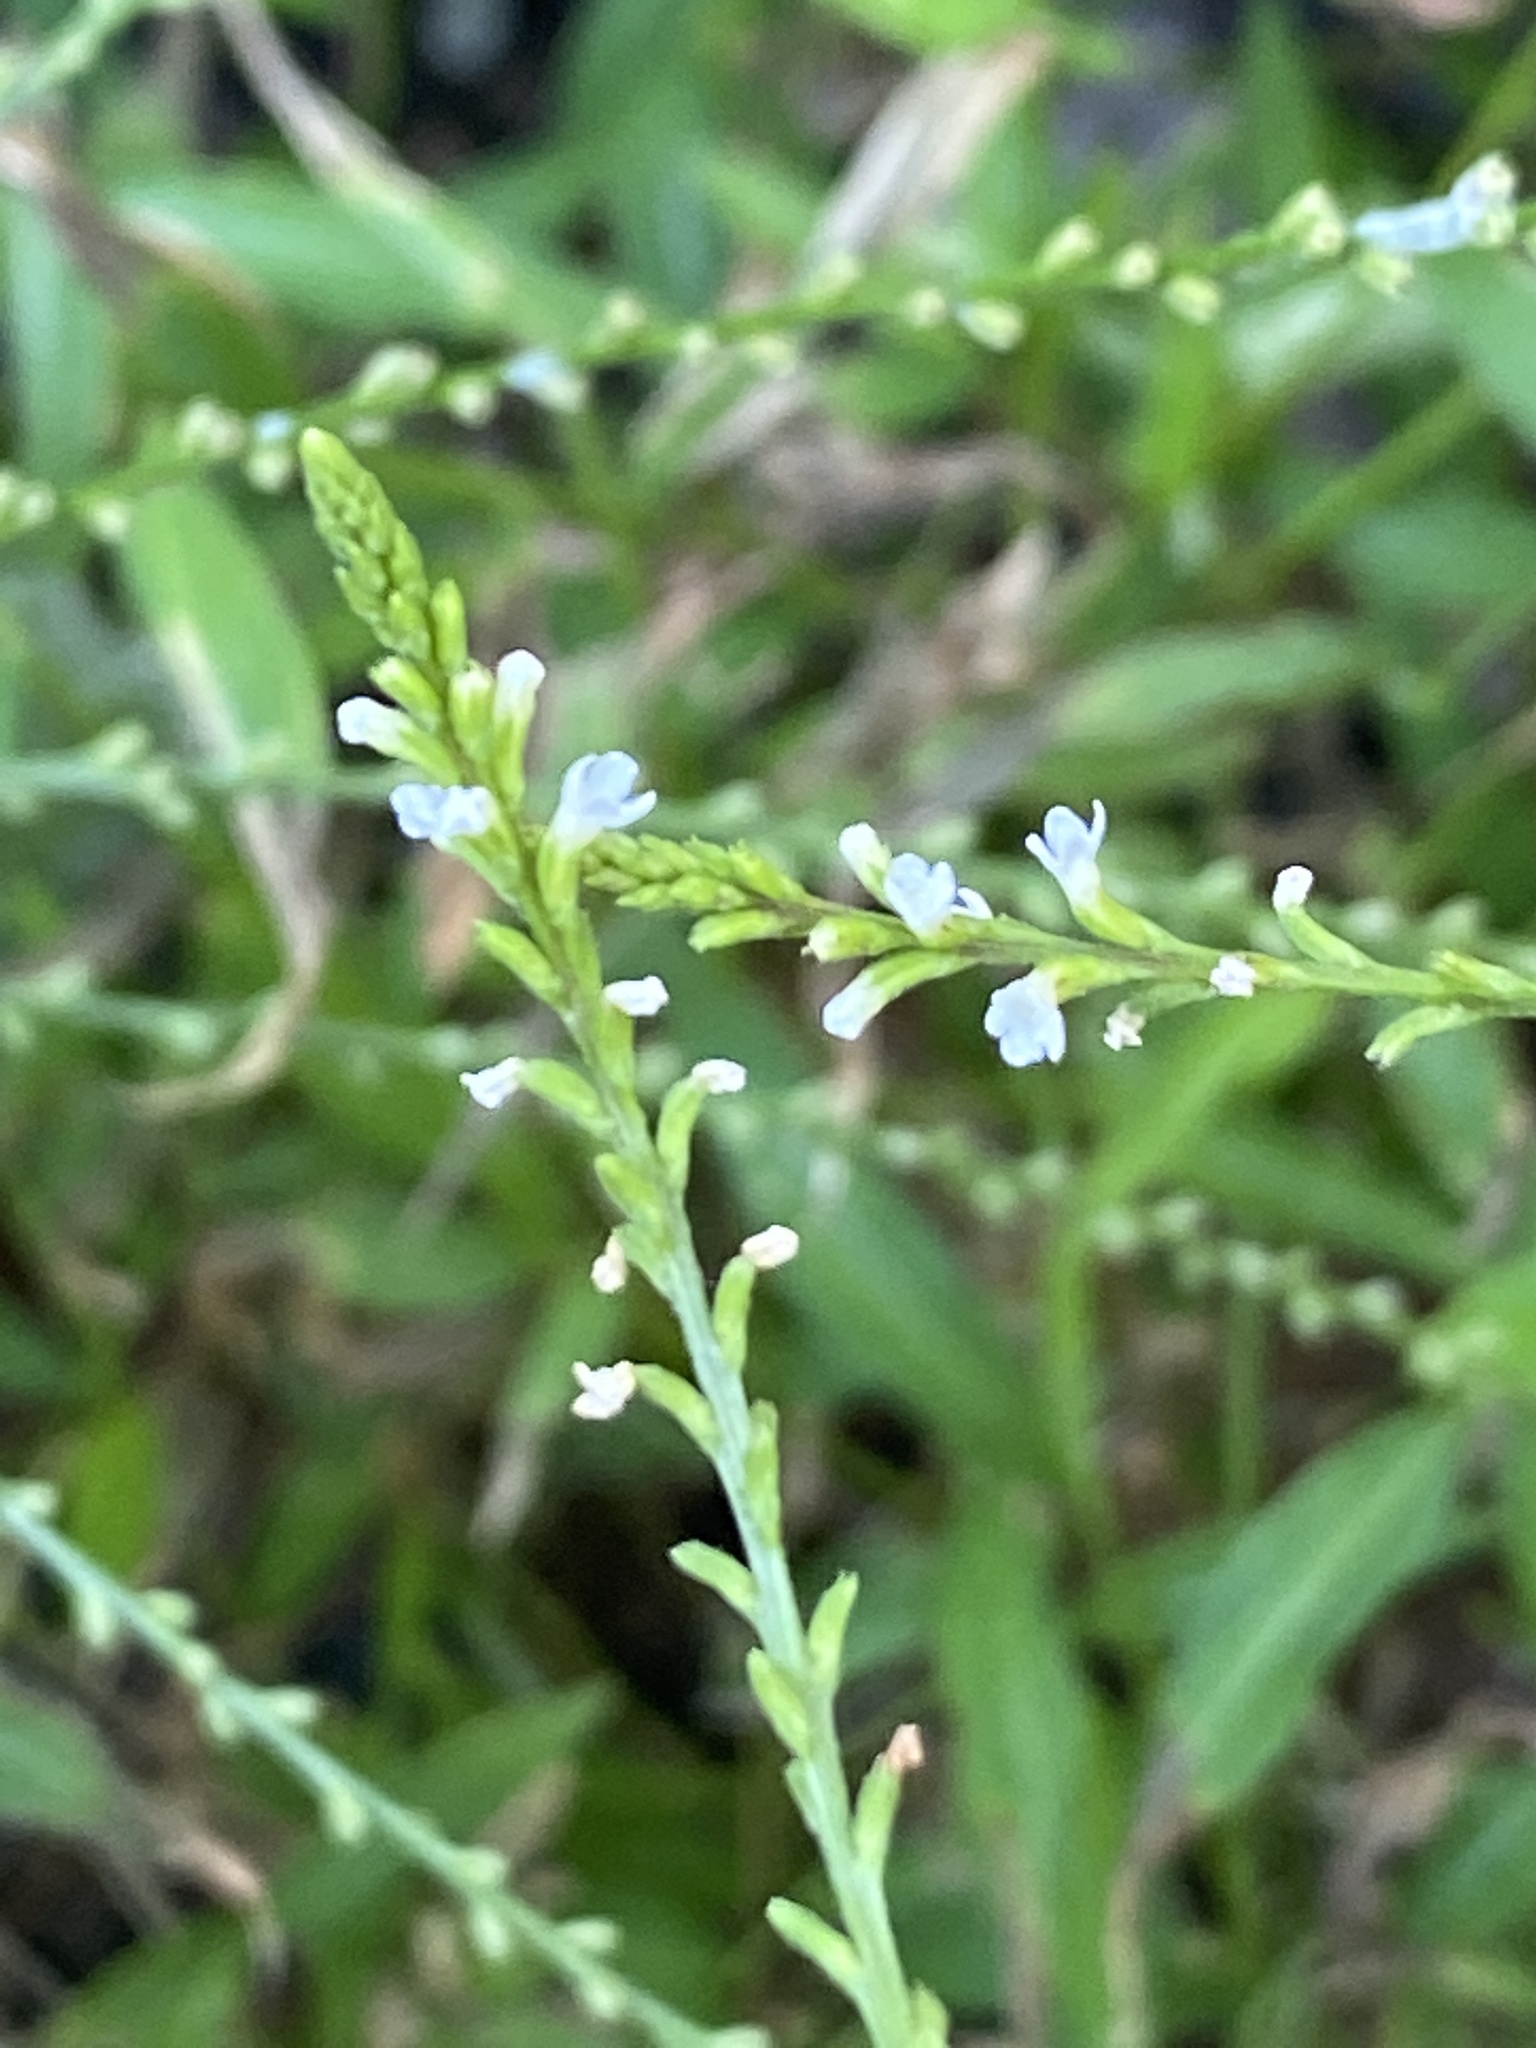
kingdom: Plantae
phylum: Tracheophyta
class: Magnoliopsida
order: Lamiales
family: Verbenaceae
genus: Verbena
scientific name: Verbena urticifolia
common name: Nettle-leaved vervain
